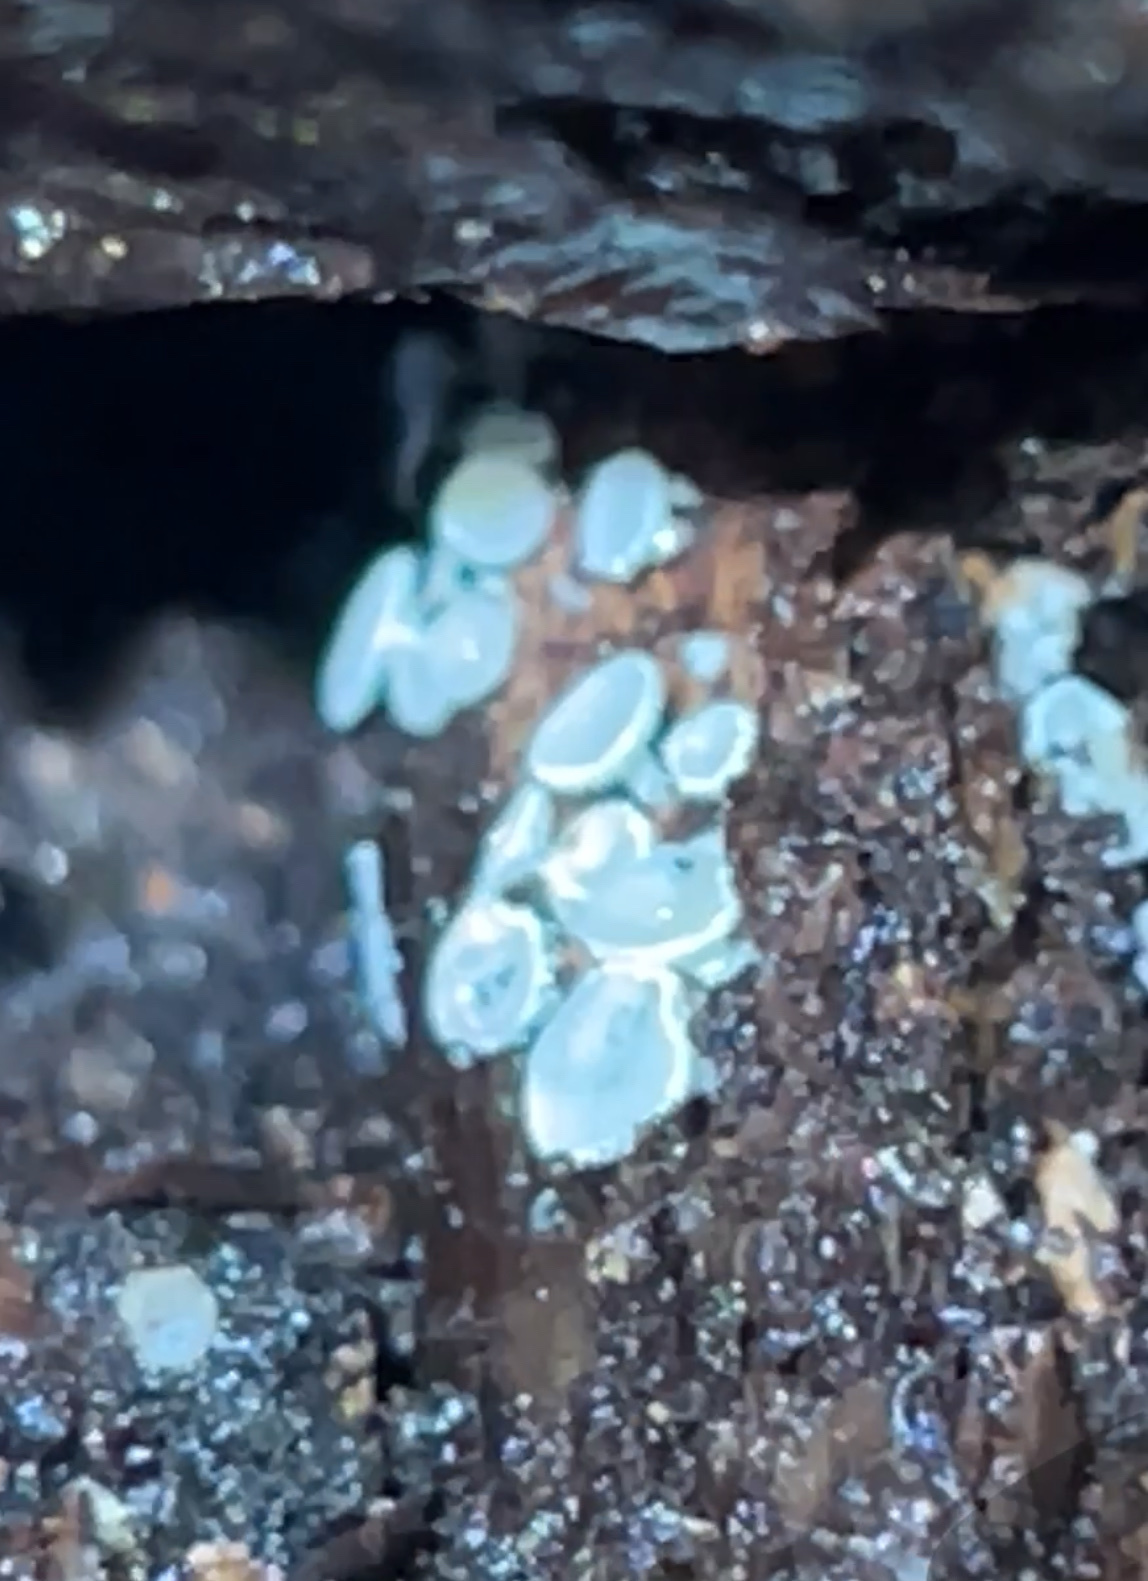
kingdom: Fungi
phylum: Ascomycota
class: Leotiomycetes
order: Helotiales
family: Lachnaceae
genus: Lachnum
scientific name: Lachnum virgineum
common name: Snowy disco
